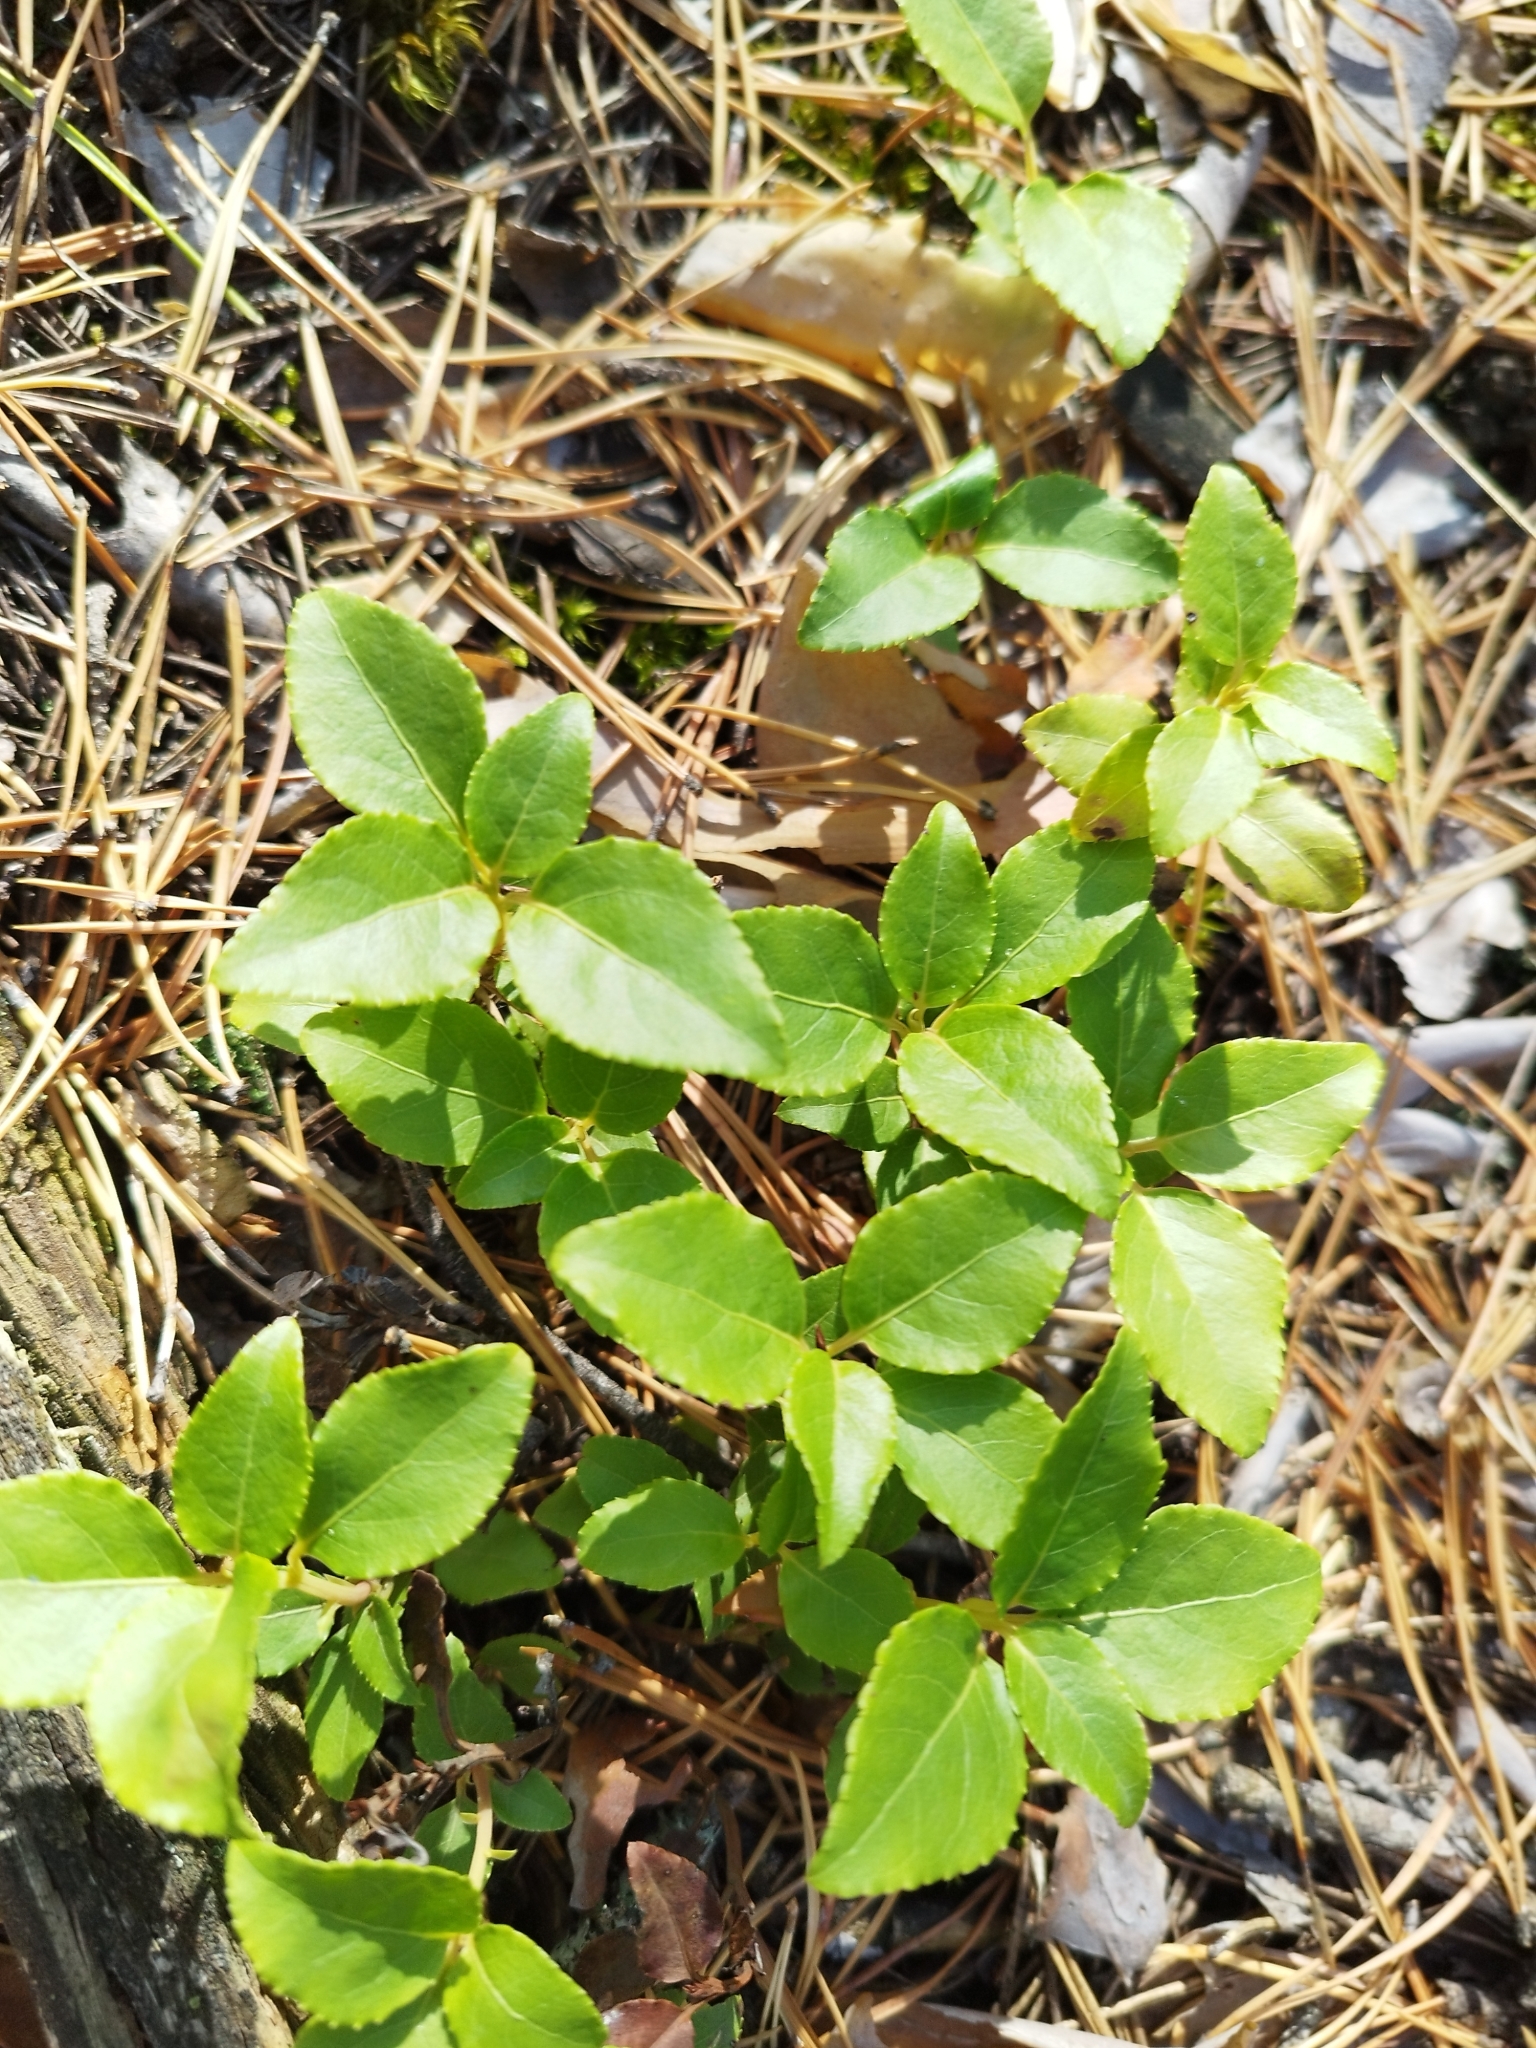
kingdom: Plantae
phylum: Tracheophyta
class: Magnoliopsida
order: Ericales
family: Ericaceae
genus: Orthilia
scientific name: Orthilia secunda
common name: One-sided orthilia
